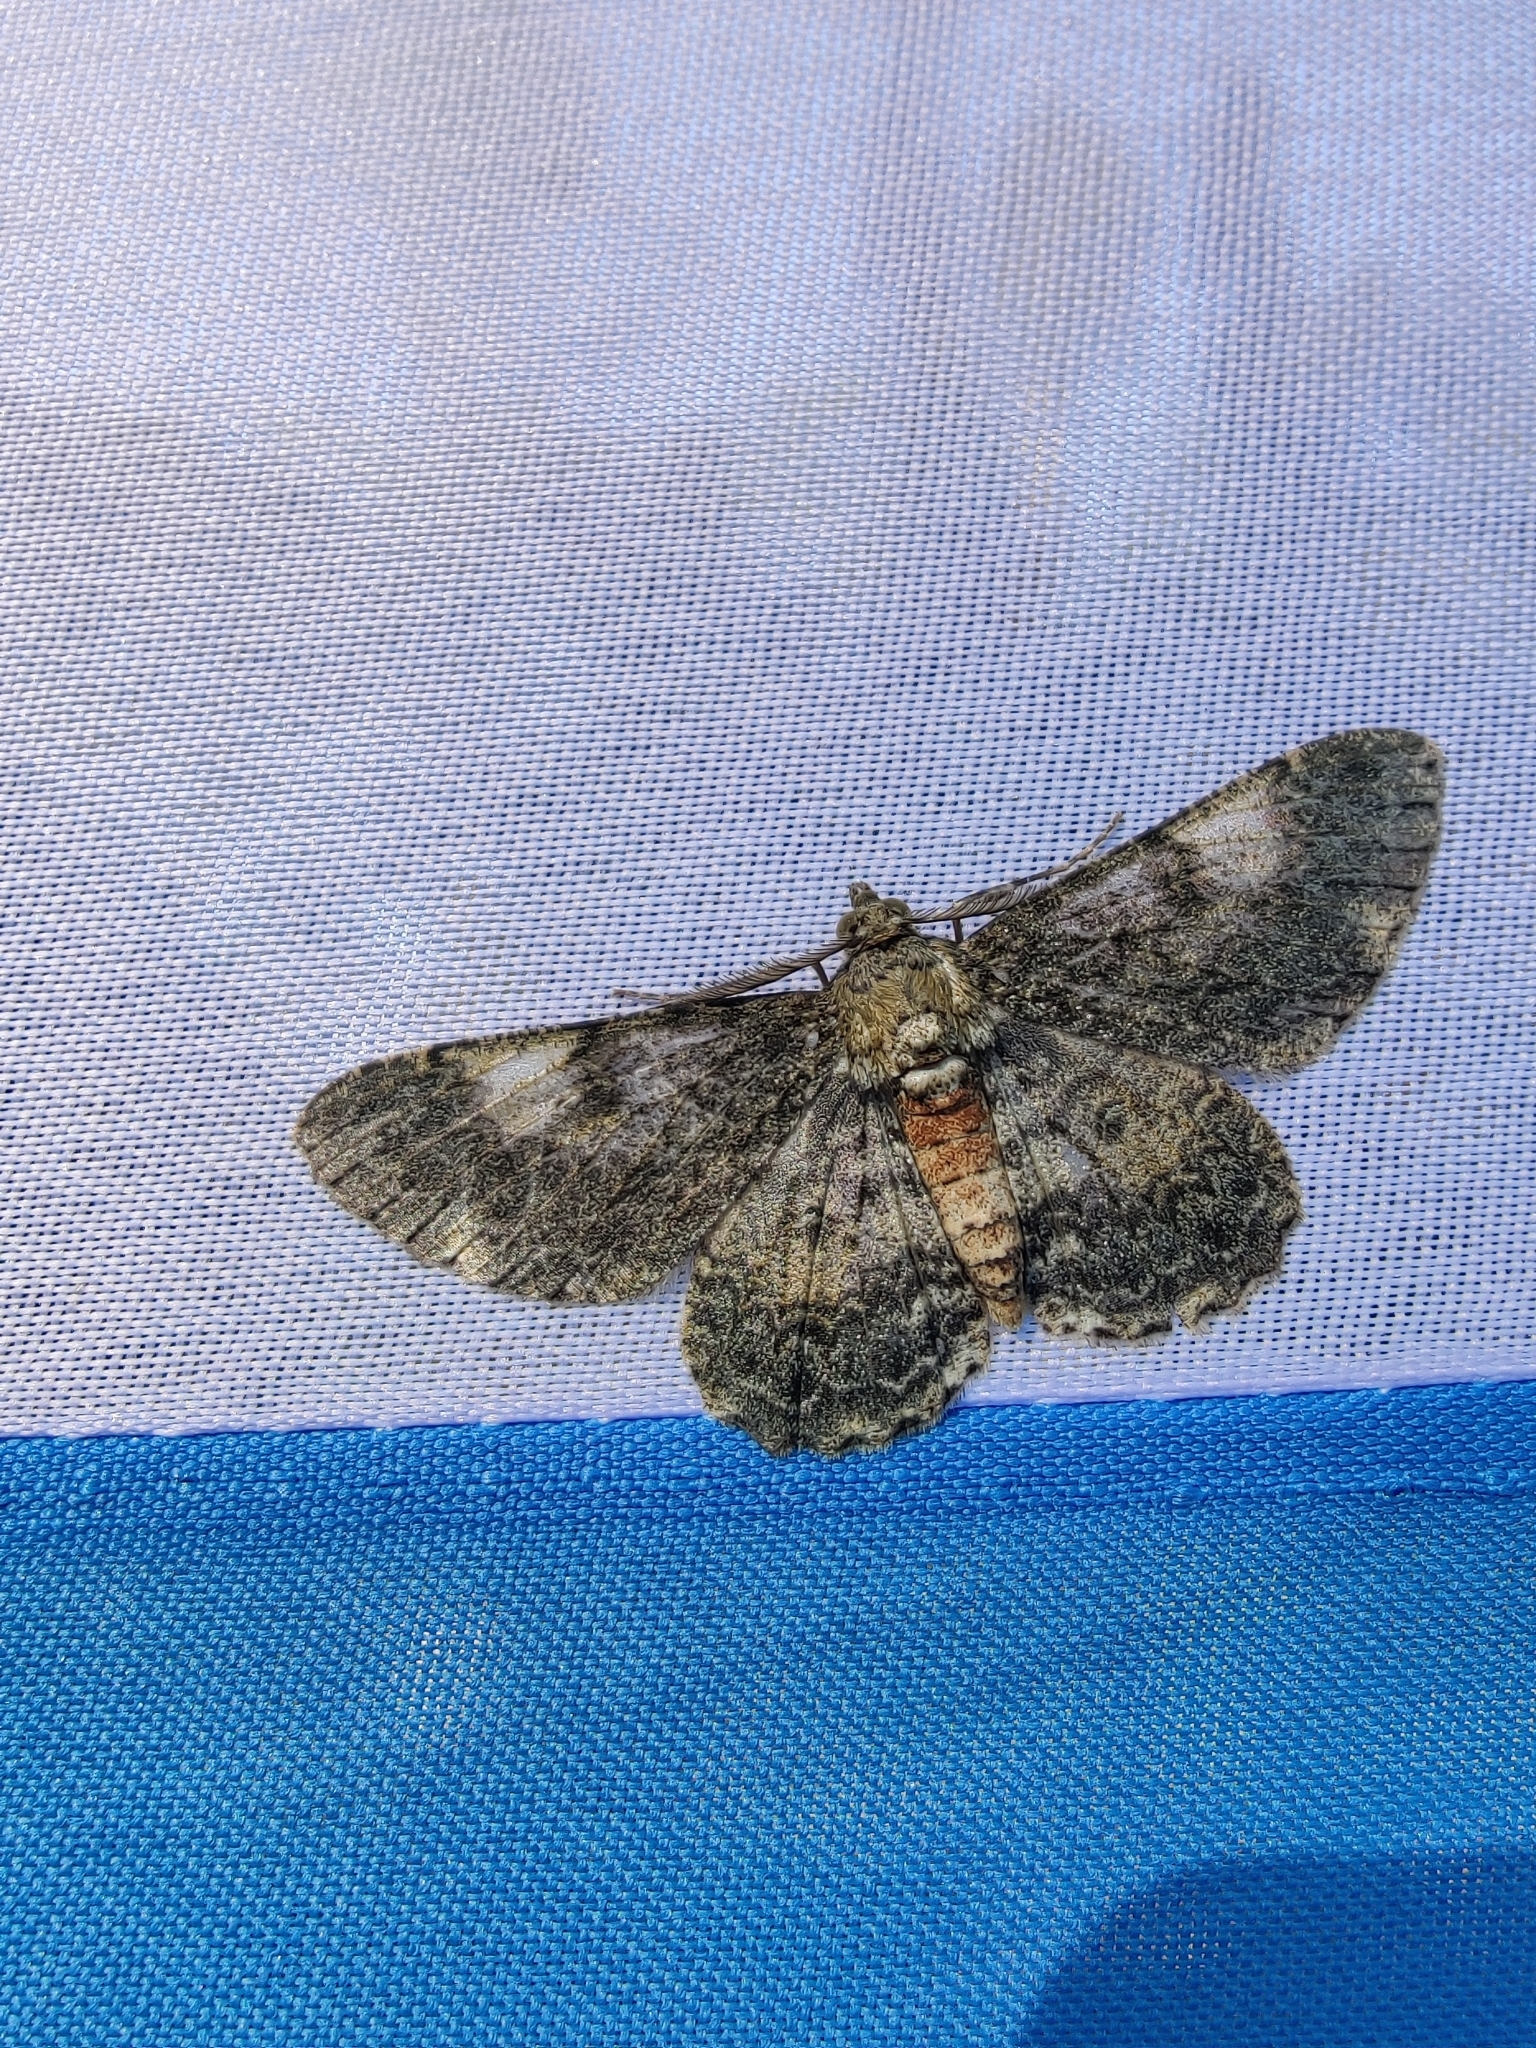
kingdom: Animalia
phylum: Arthropoda
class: Insecta
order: Lepidoptera
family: Geometridae
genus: Cleora
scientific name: Cleora inoffensa
